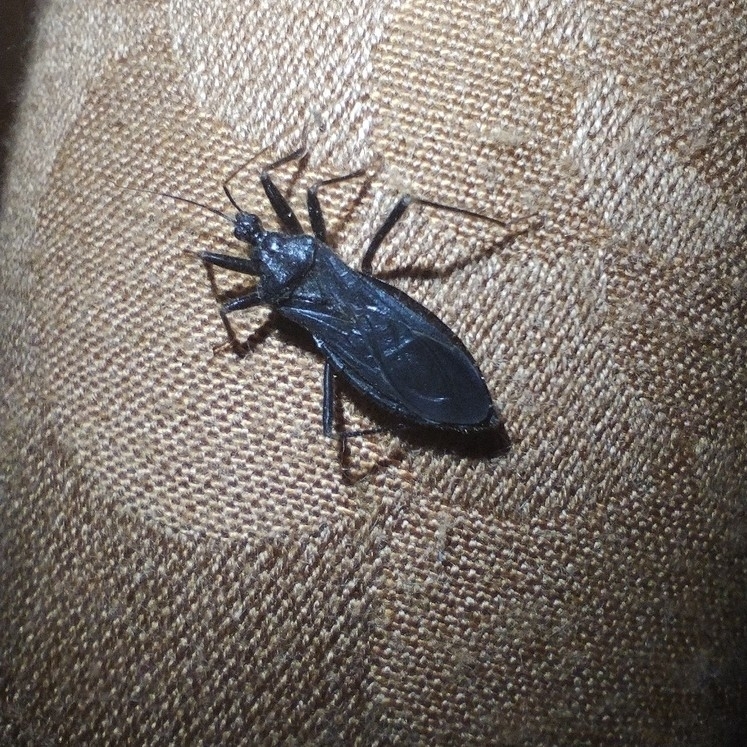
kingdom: Animalia
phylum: Arthropoda
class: Insecta
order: Hemiptera
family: Reduviidae
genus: Reduvius
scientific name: Reduvius personatus
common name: Masked hunter
